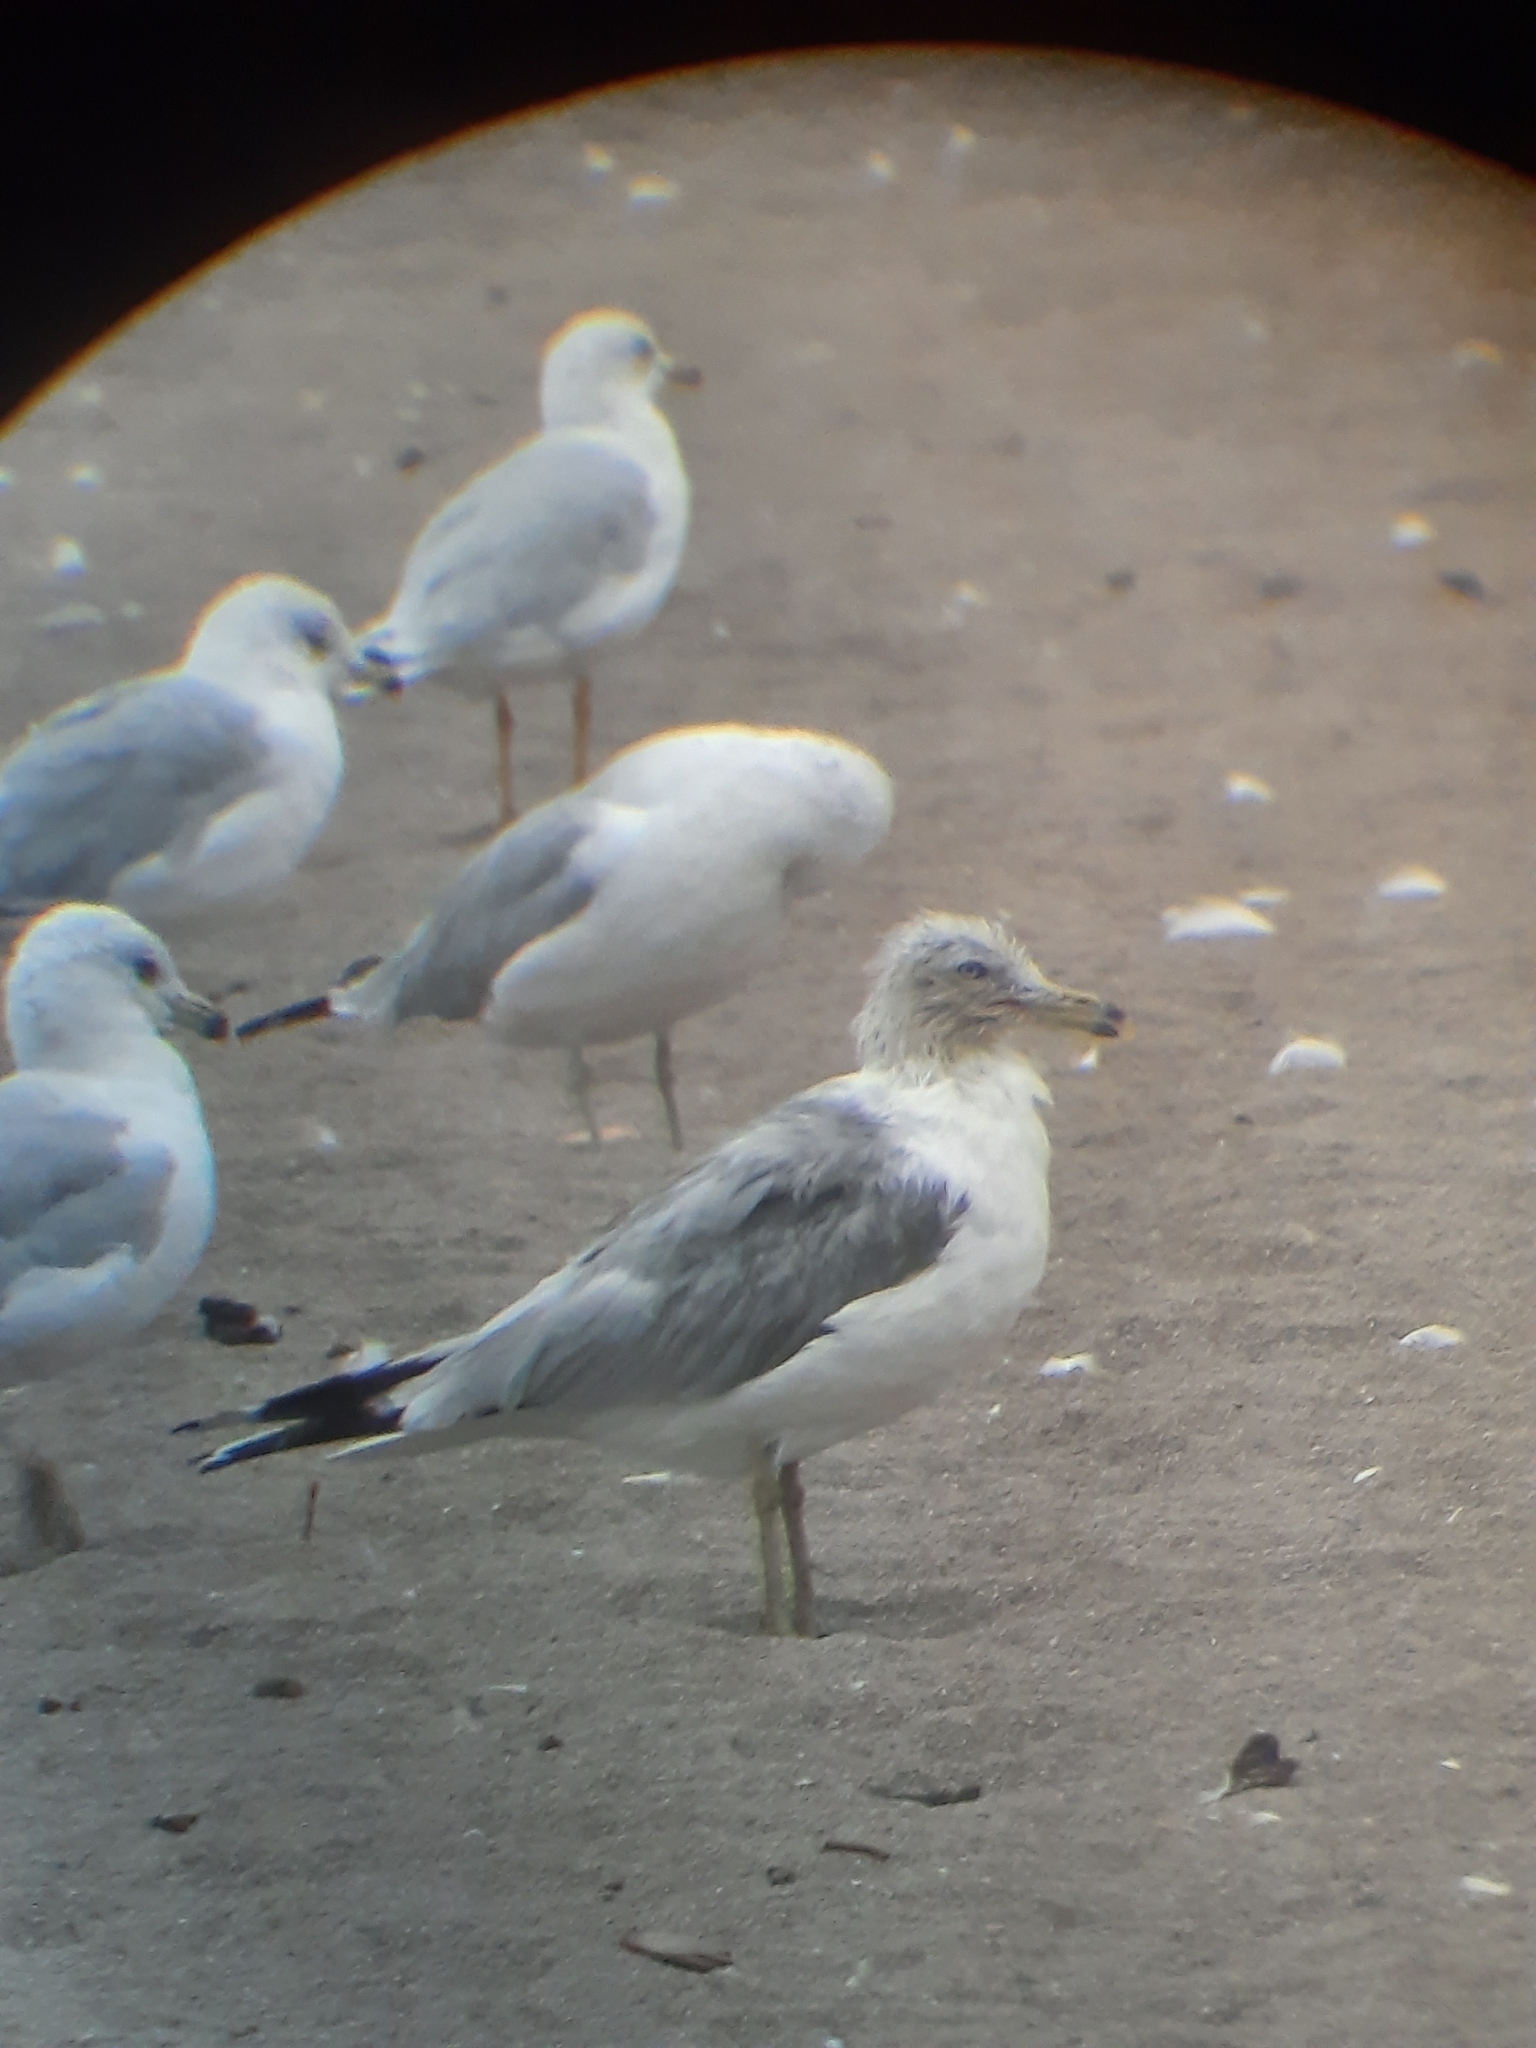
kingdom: Animalia
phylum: Chordata
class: Aves
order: Charadriiformes
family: Laridae
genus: Larus
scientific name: Larus delawarensis
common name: Ring-billed gull
